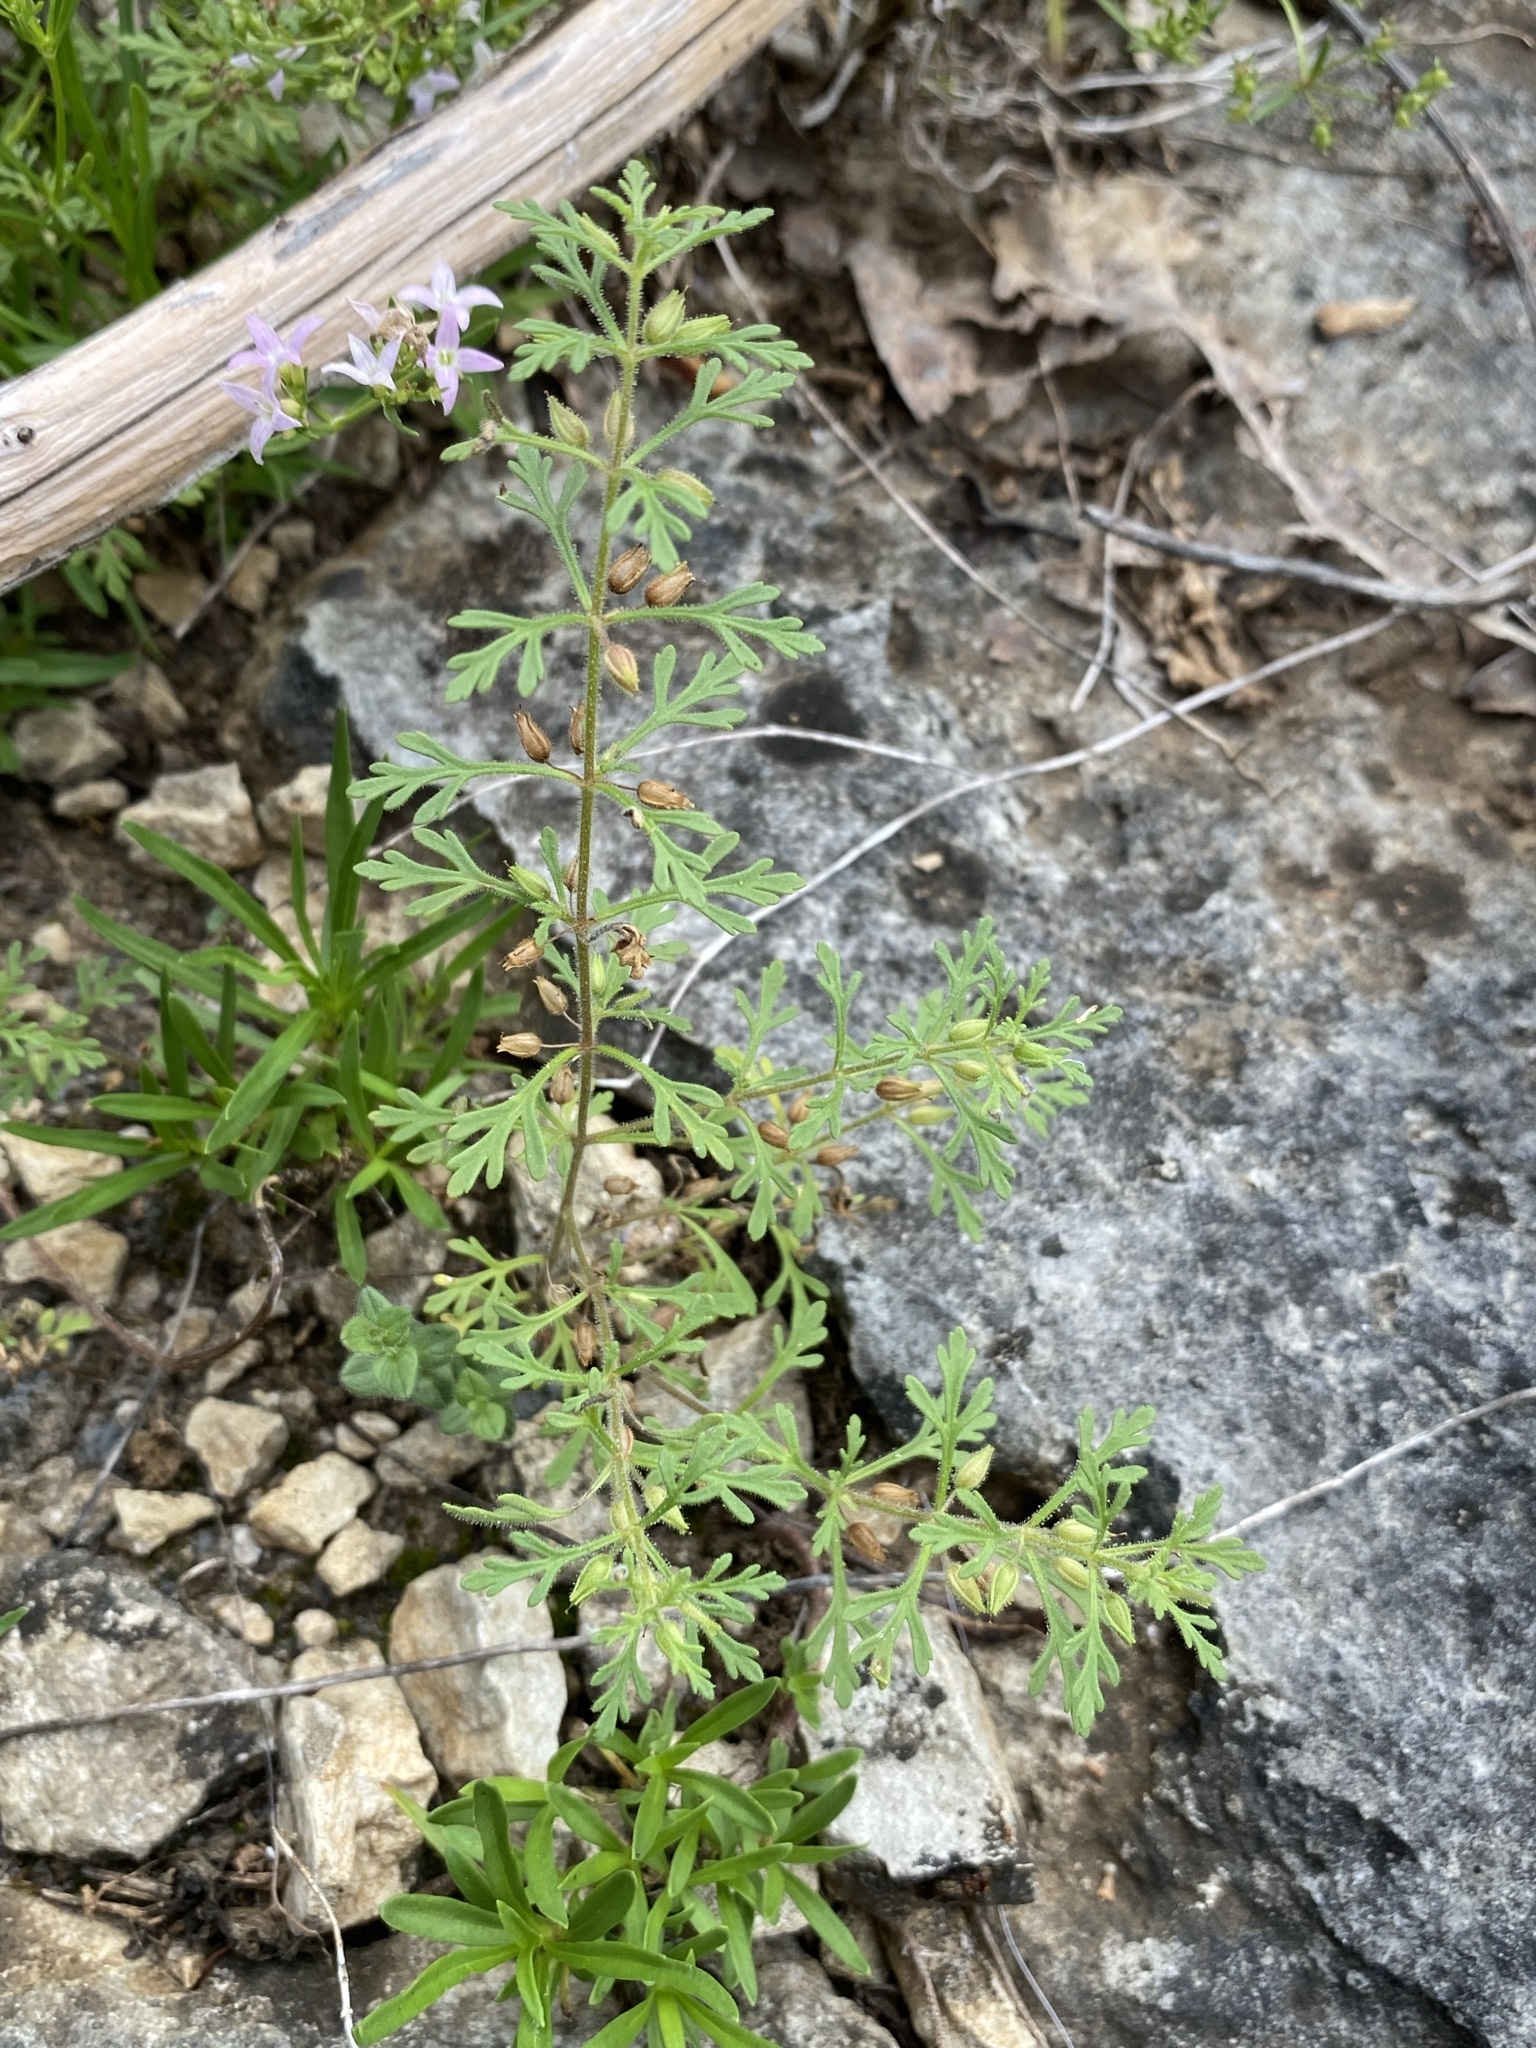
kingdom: Plantae
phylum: Tracheophyta
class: Magnoliopsida
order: Lamiales
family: Plantaginaceae
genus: Leucospora
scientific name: Leucospora multifida
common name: Narrow-leaf paleseed
